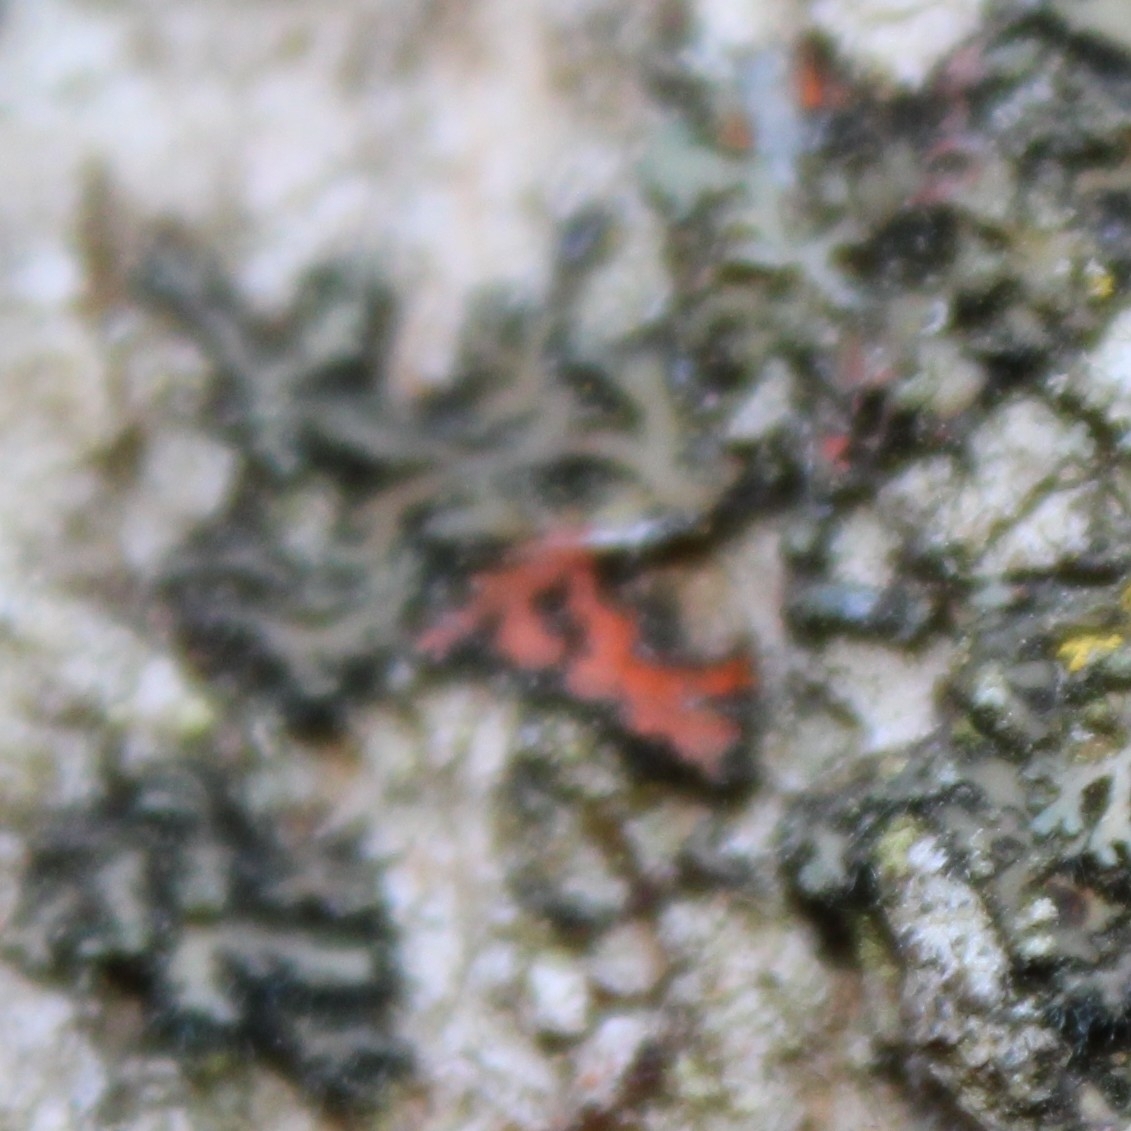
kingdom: Fungi
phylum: Ascomycota
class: Sordariomycetes
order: Hypocreales
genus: Illosporiopsis
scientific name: Illosporiopsis christiansenii
